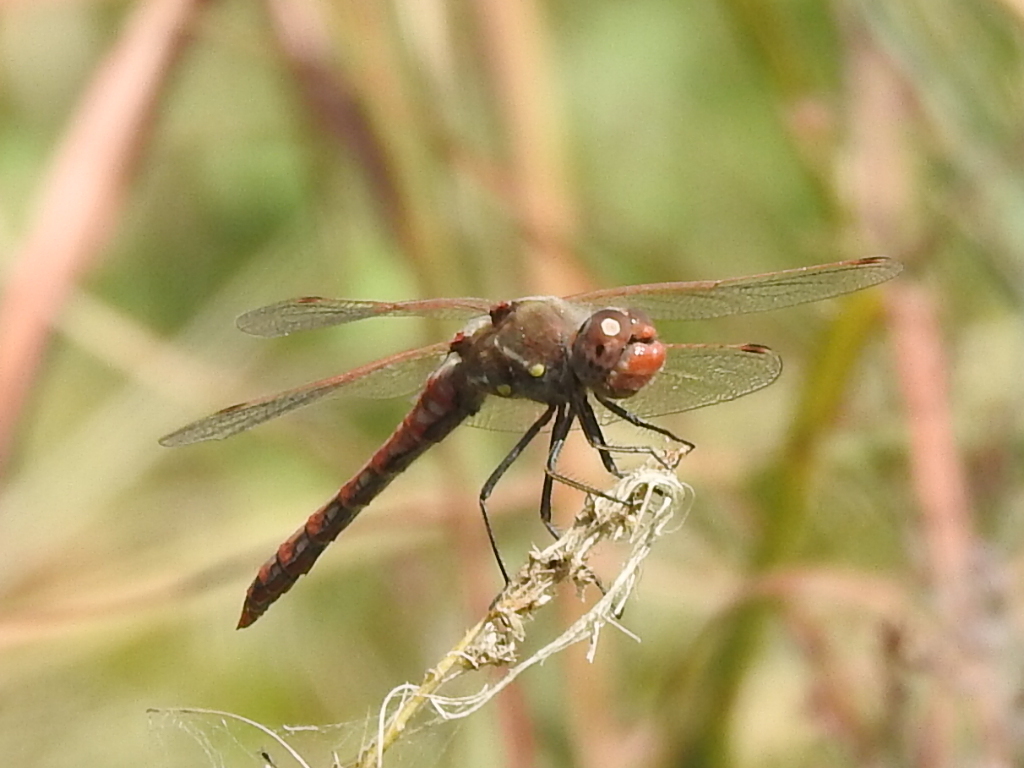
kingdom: Animalia
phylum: Arthropoda
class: Insecta
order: Odonata
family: Libellulidae
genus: Sympetrum
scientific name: Sympetrum corruptum
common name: Variegated meadowhawk
